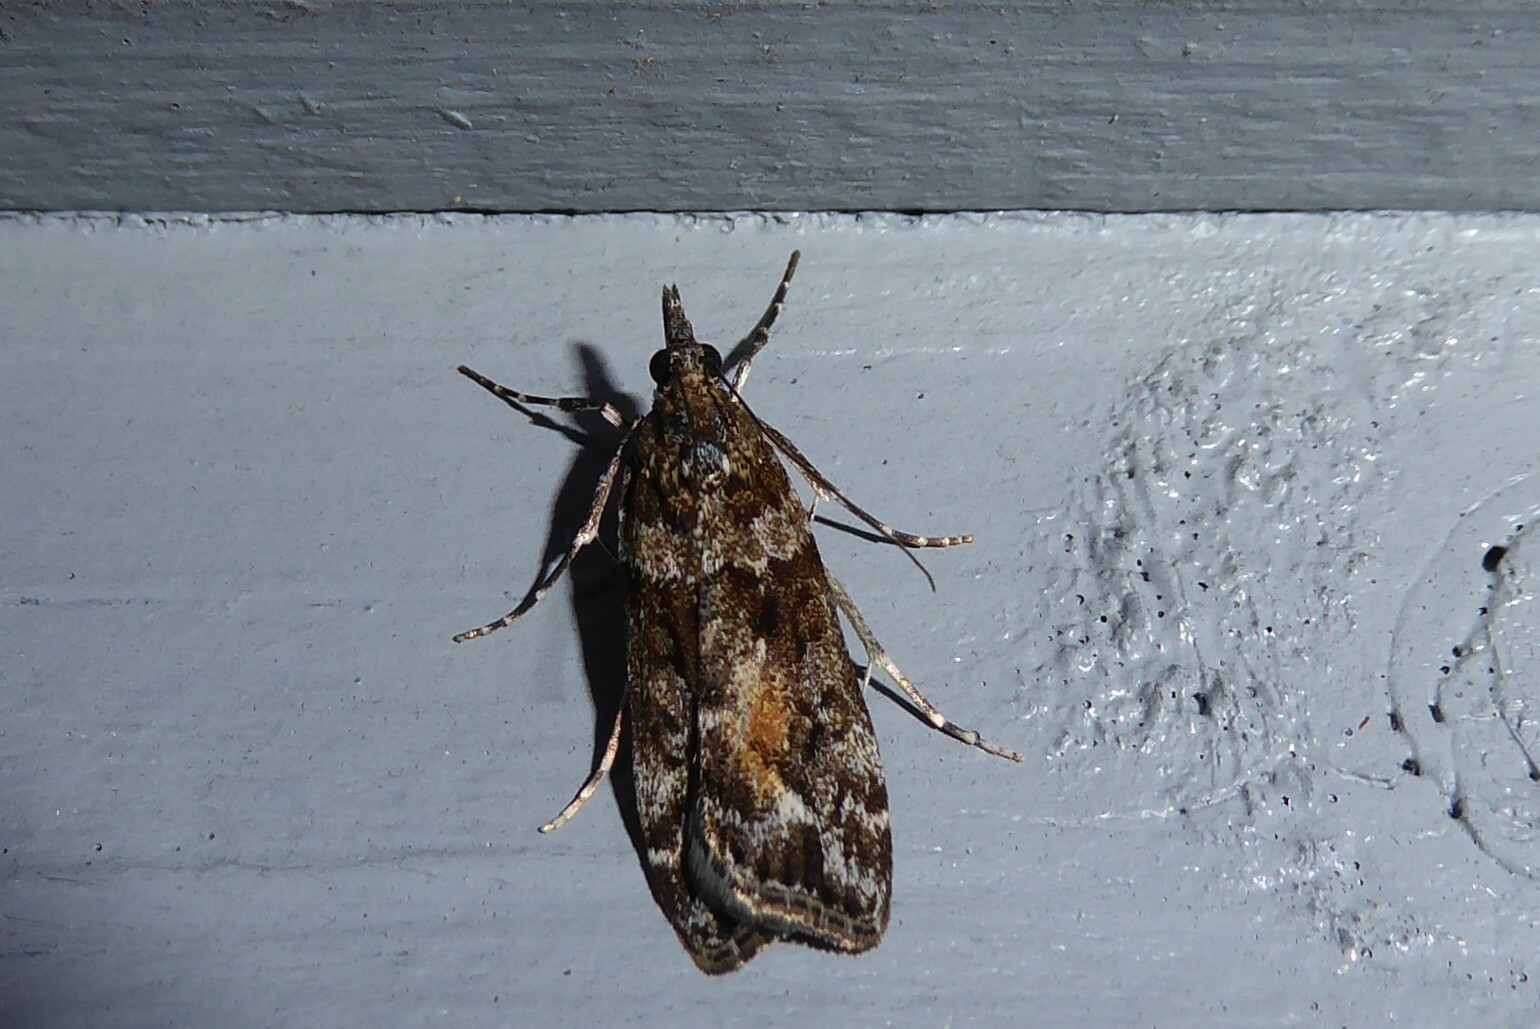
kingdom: Animalia
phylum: Arthropoda
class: Insecta
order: Lepidoptera
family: Crambidae
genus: Eudonia
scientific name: Eudonia submarginalis
